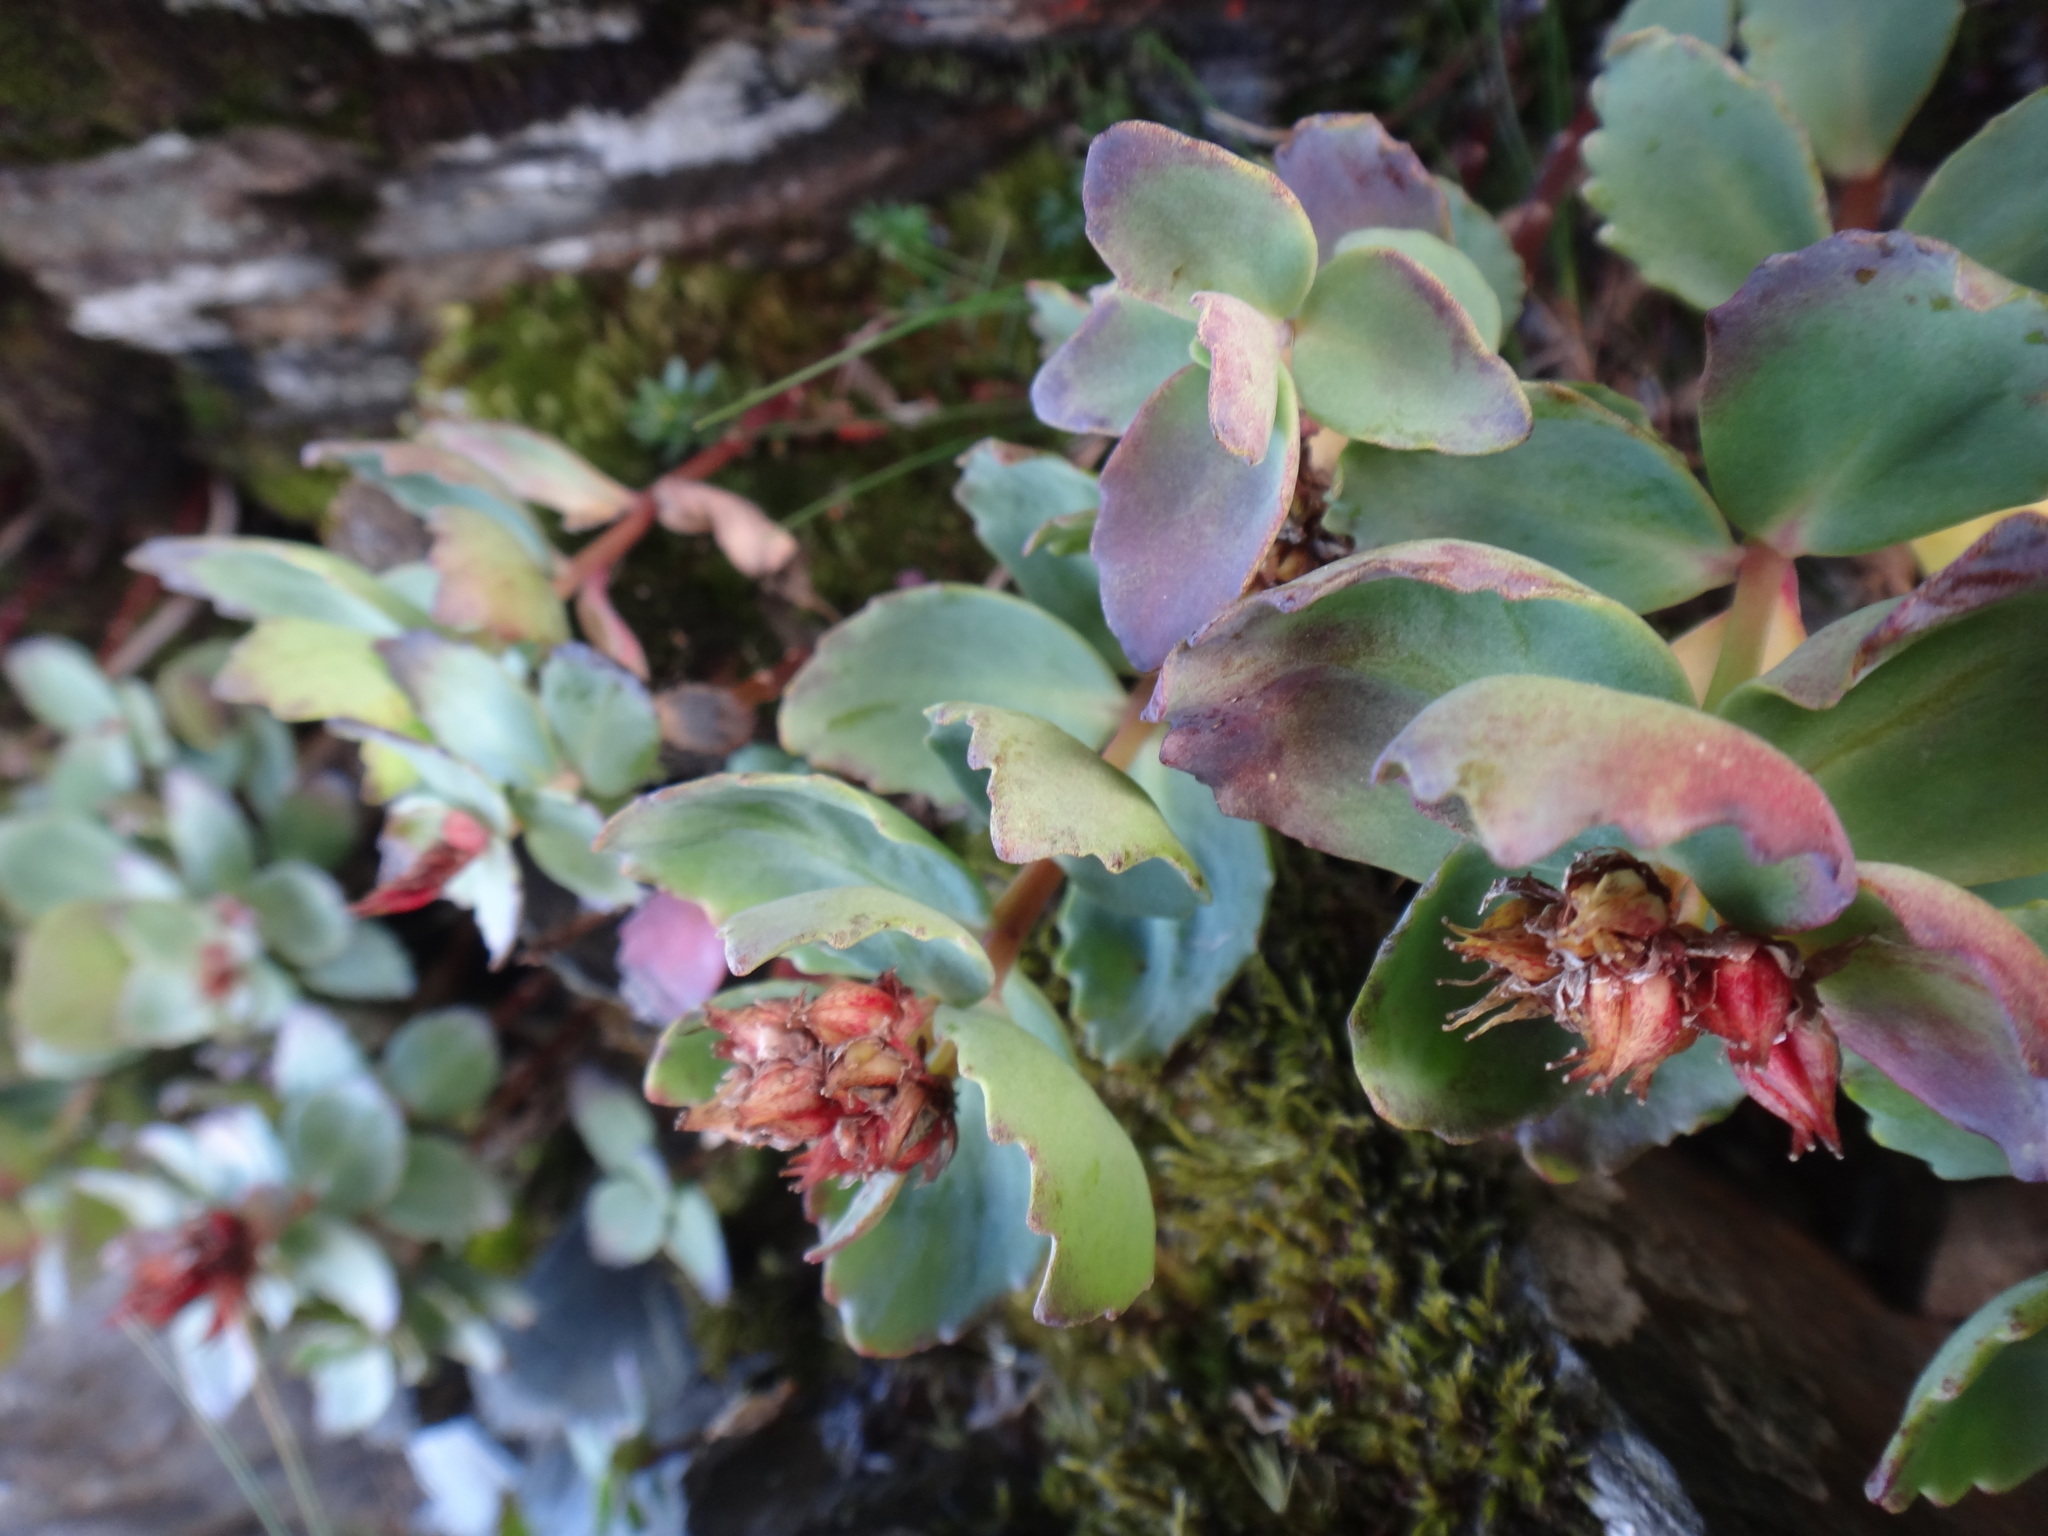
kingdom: Plantae
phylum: Tracheophyta
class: Magnoliopsida
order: Saxifragales
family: Crassulaceae
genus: Phedimus
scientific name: Phedimus subcapitatus
